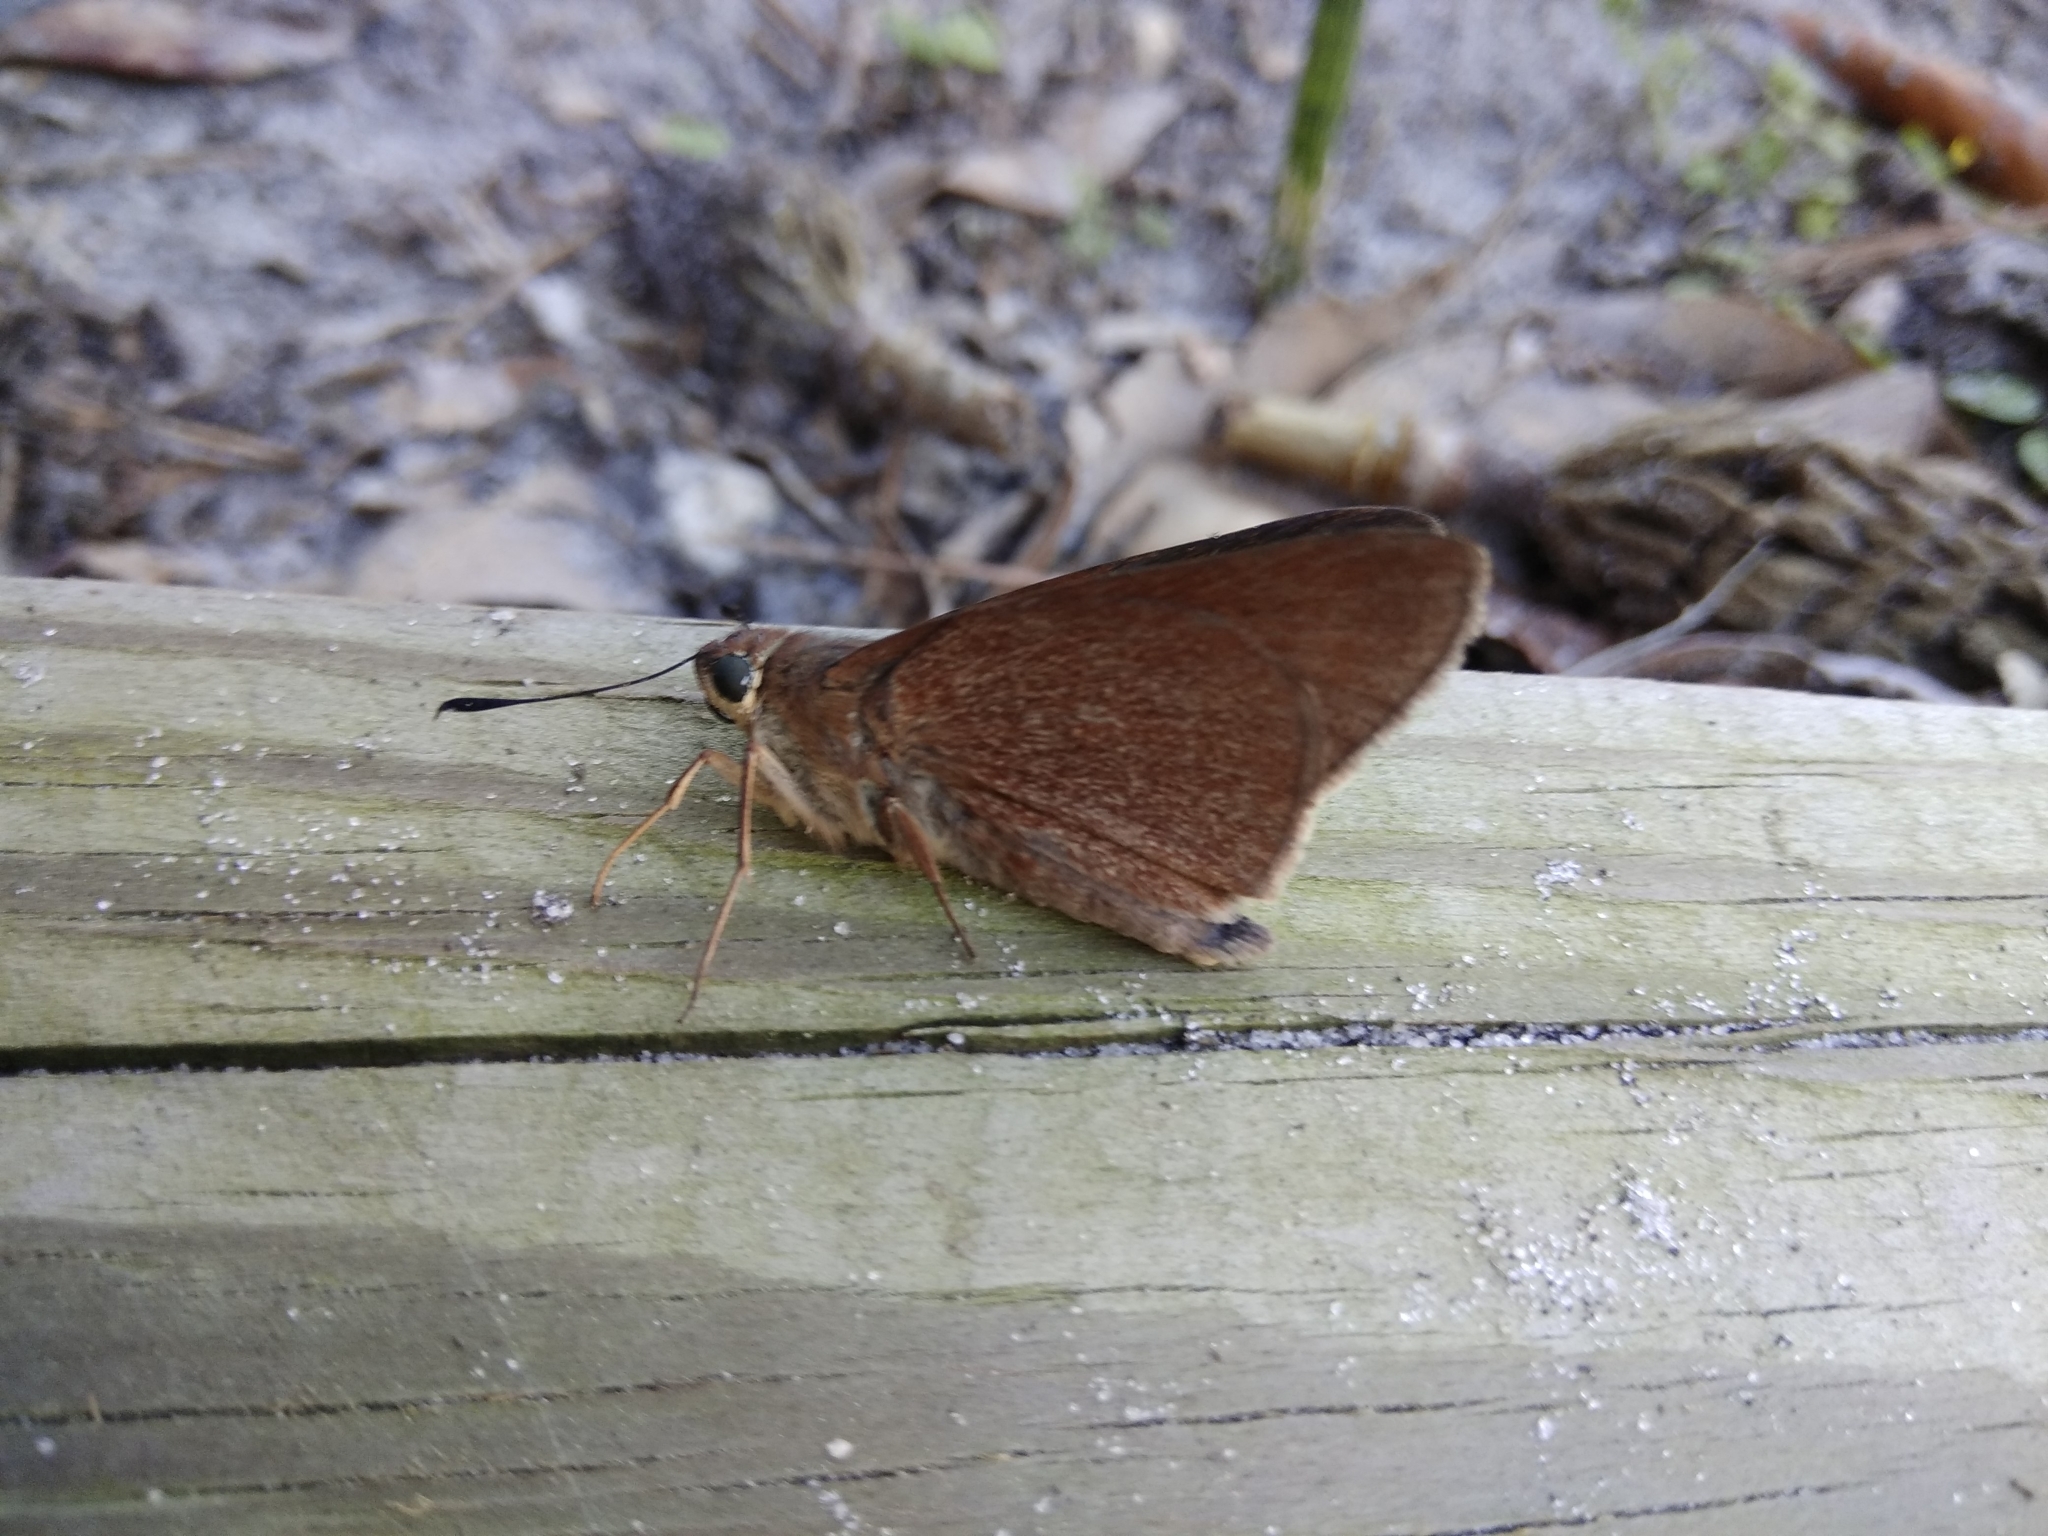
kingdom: Animalia
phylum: Arthropoda
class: Insecta
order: Lepidoptera
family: Hesperiidae
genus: Asbolis
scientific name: Asbolis capucinus
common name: Monk skipper
